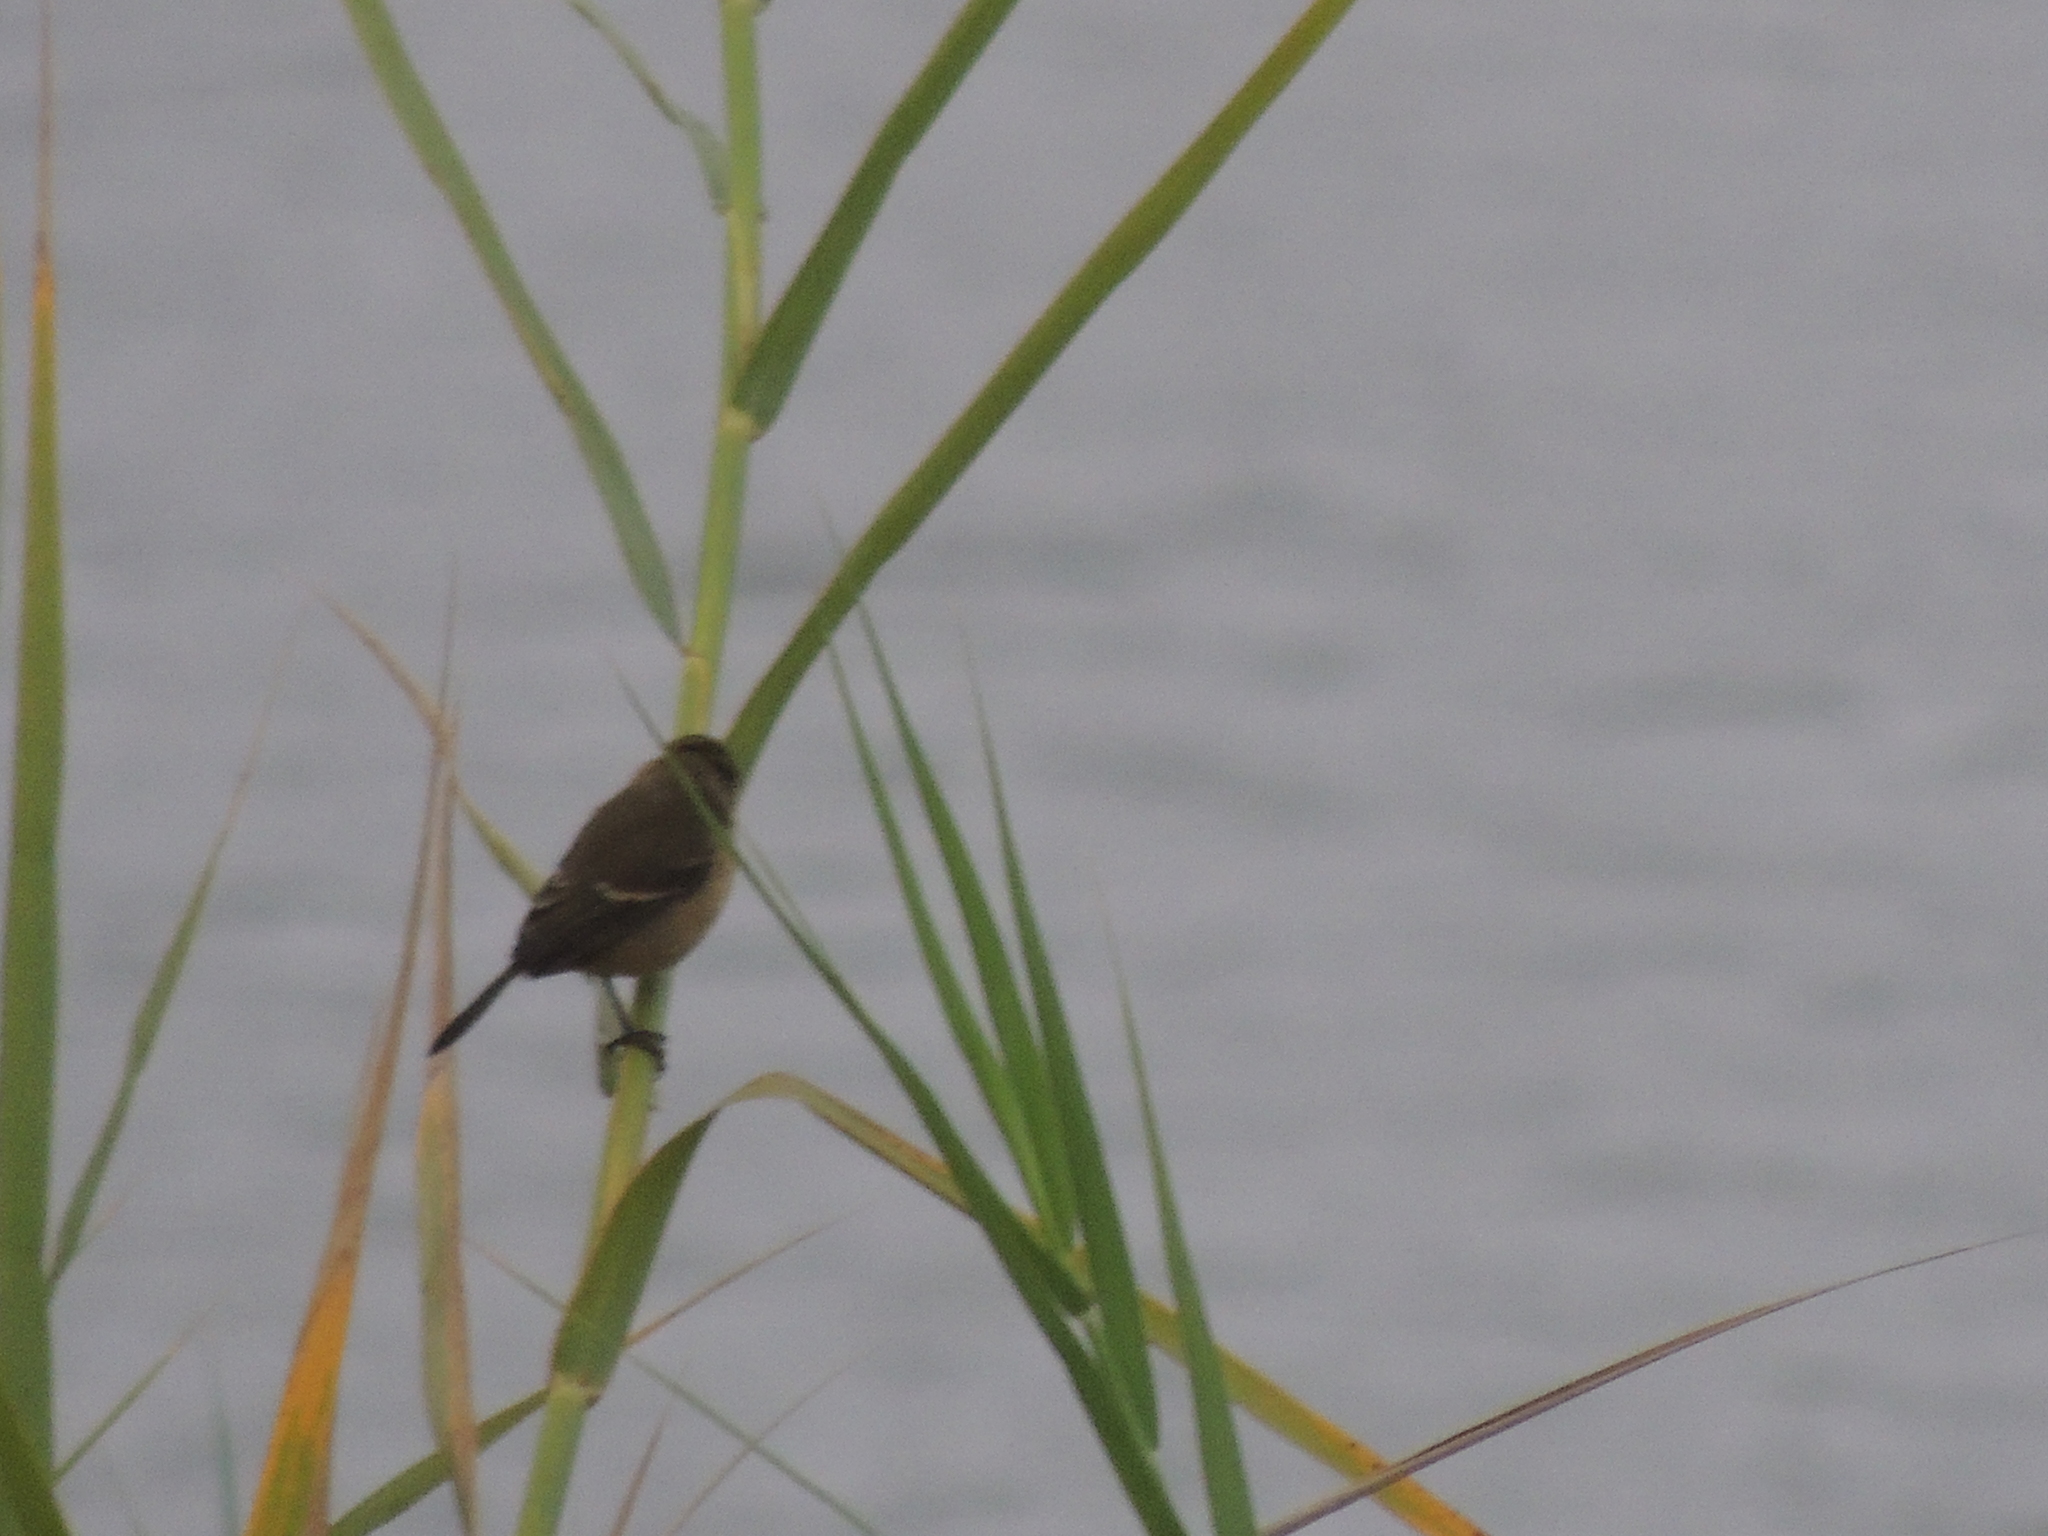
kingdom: Animalia
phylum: Chordata
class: Aves
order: Passeriformes
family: Thraupidae
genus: Sporophila
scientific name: Sporophila morelleti
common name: Morelet's seedeater
